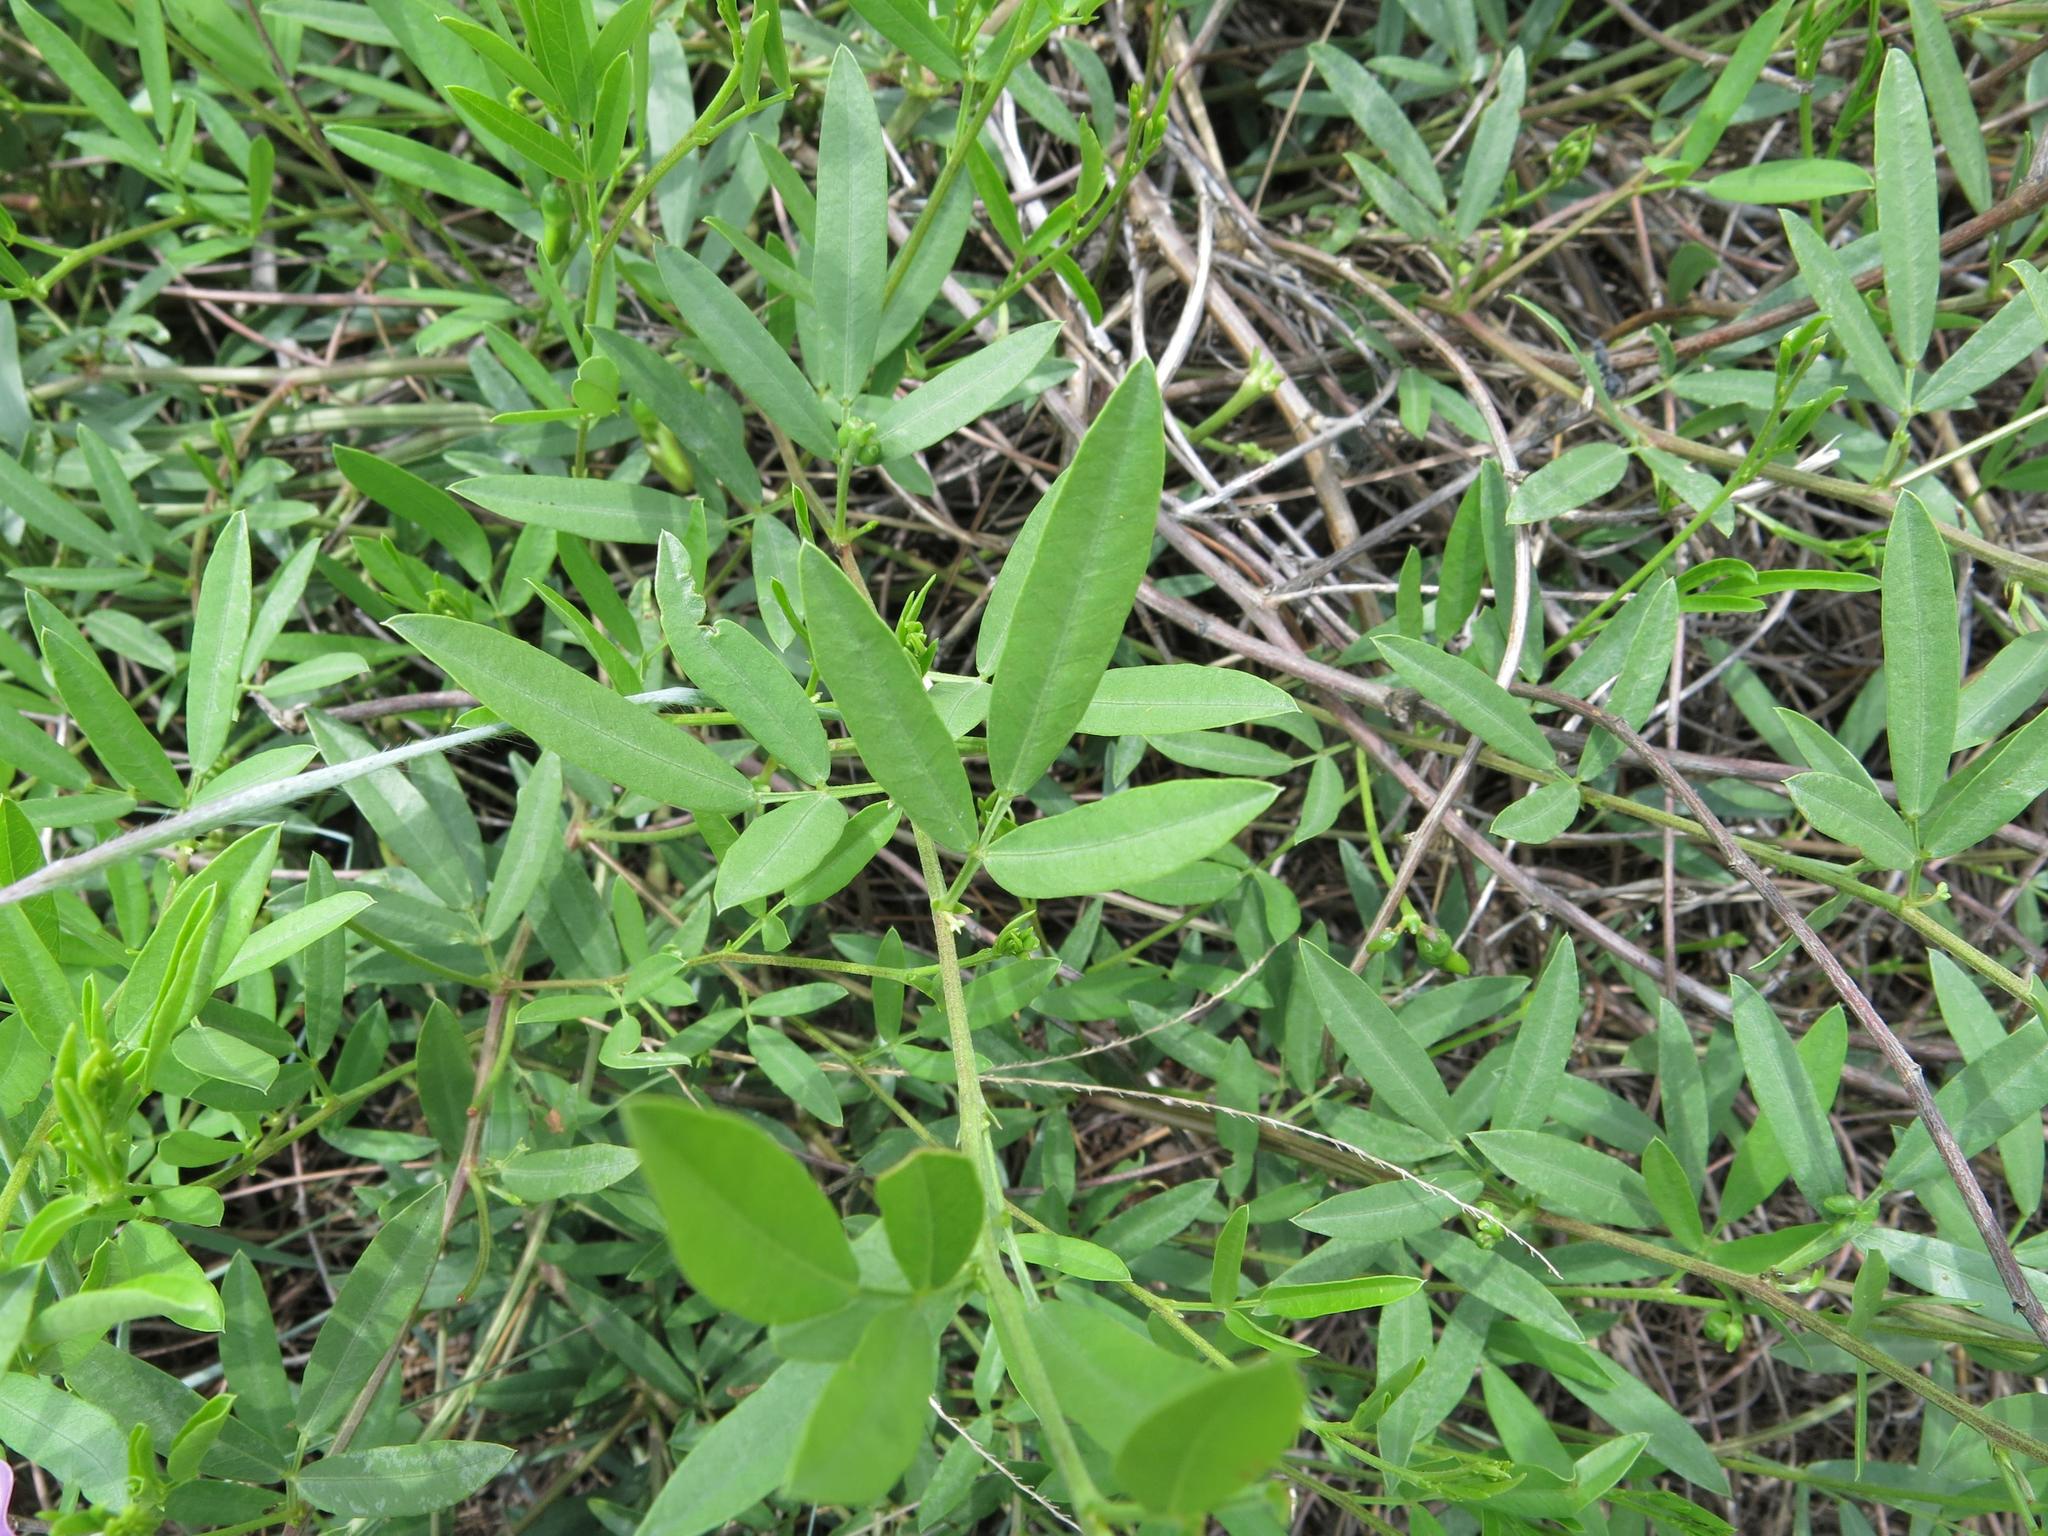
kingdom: Plantae
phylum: Tracheophyta
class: Magnoliopsida
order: Fabales
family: Fabaceae
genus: Vigna
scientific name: Vigna vexillata
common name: Zombi pea
